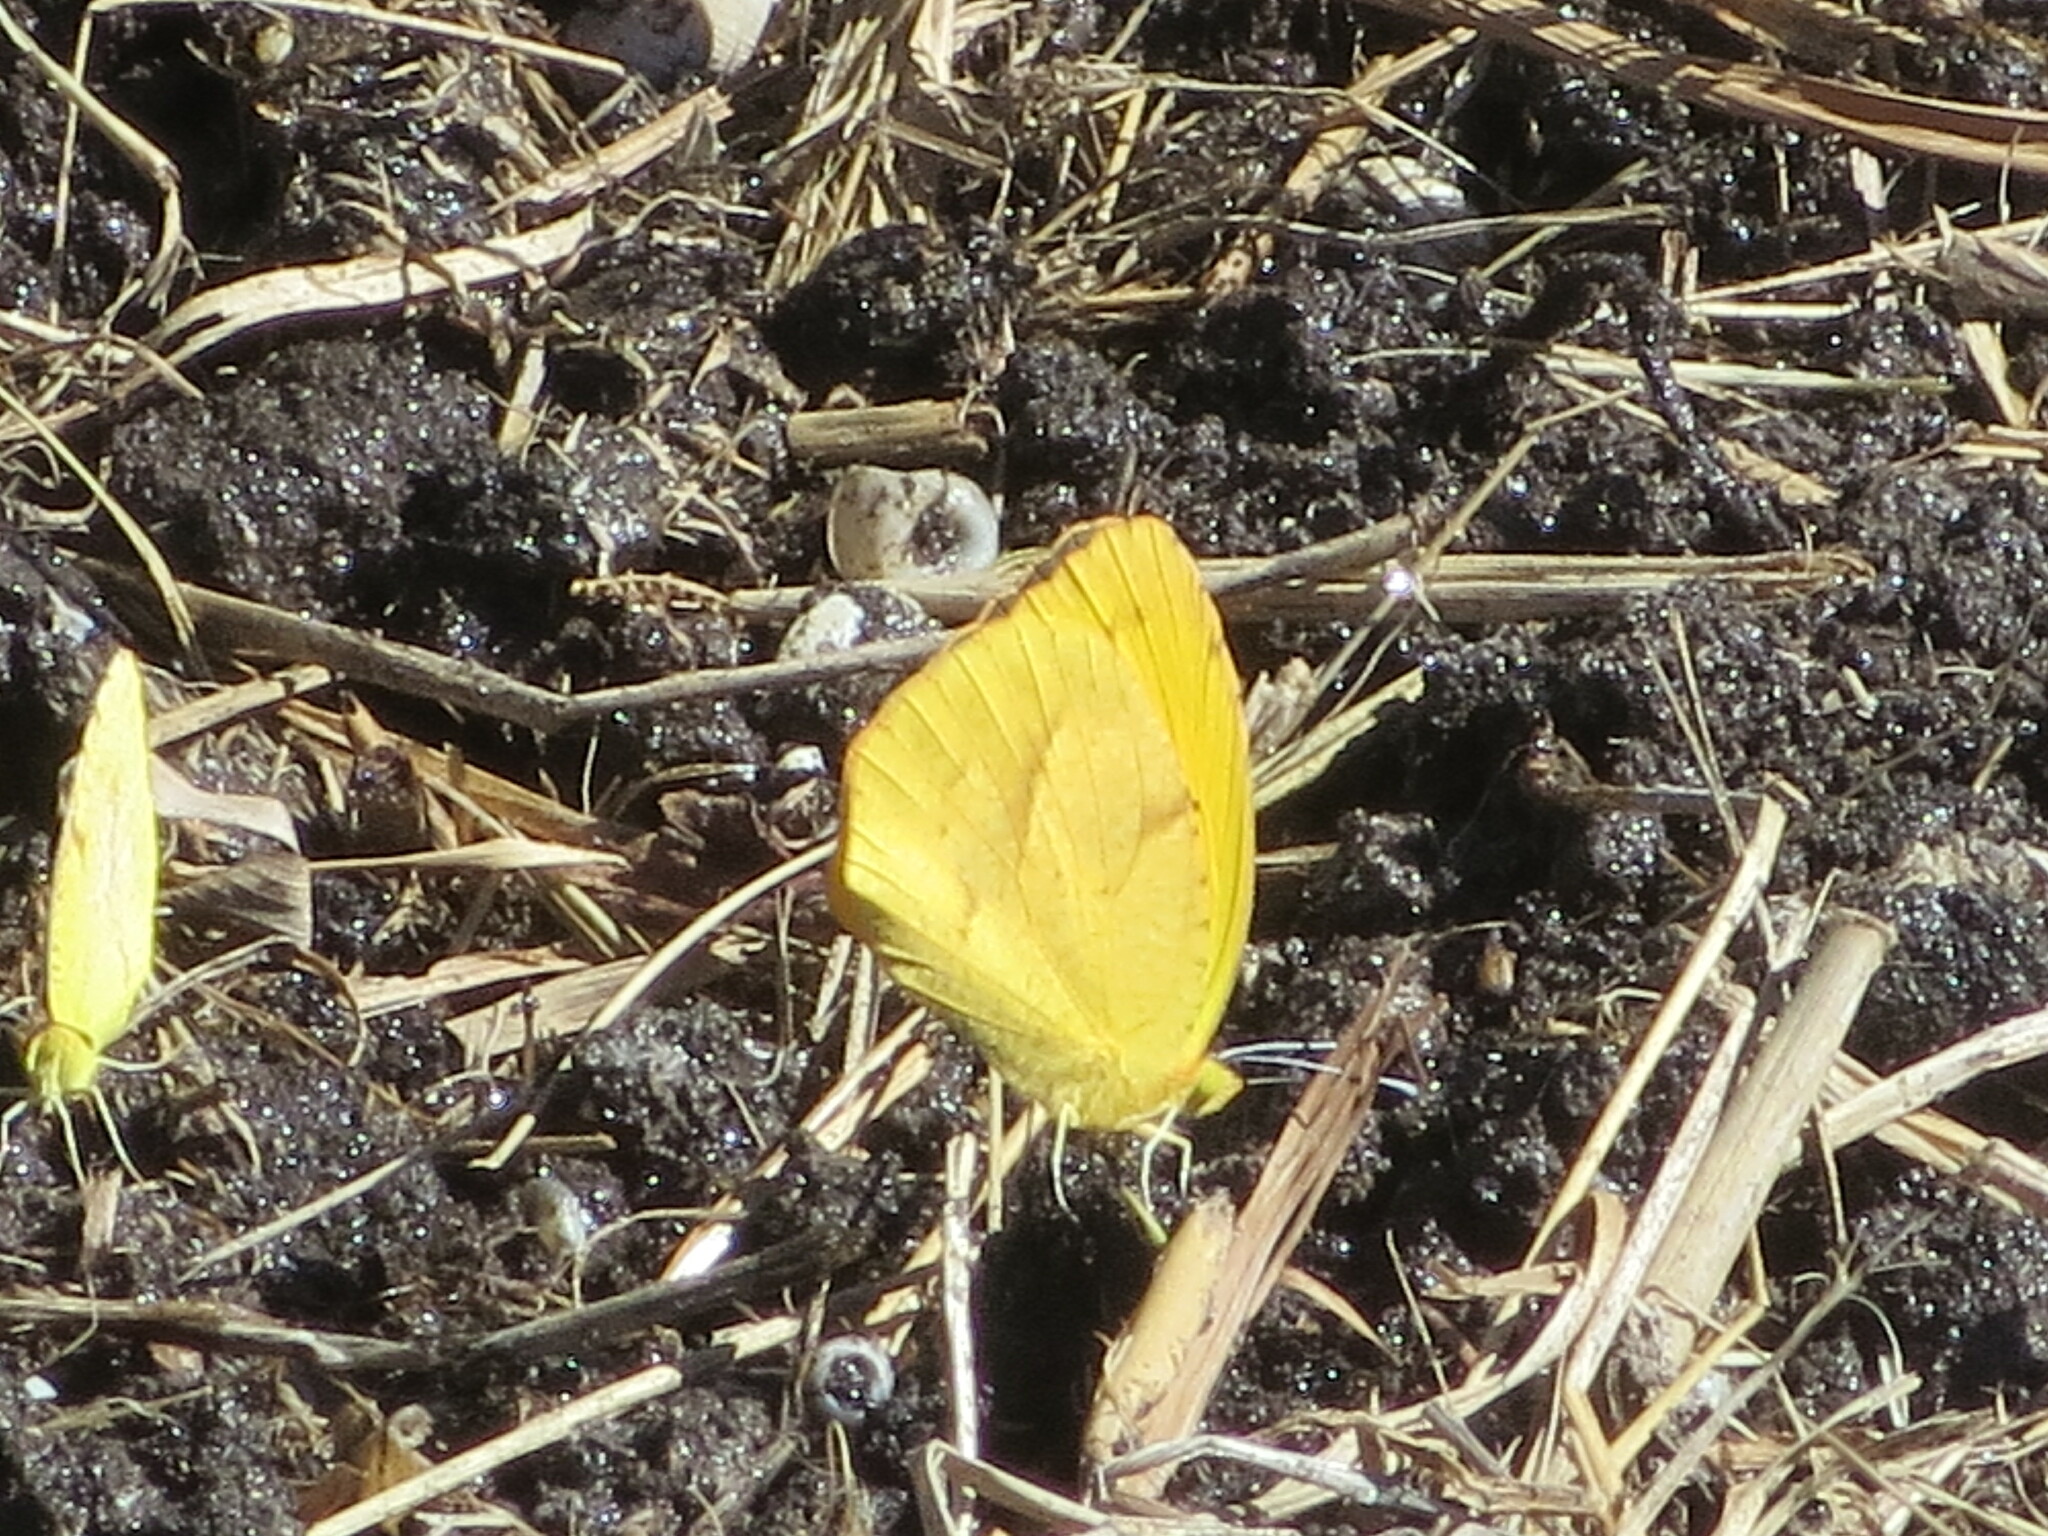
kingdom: Animalia
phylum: Arthropoda
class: Insecta
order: Lepidoptera
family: Pieridae
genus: Abaeis
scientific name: Abaeis nicippe
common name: Sleepy orange
